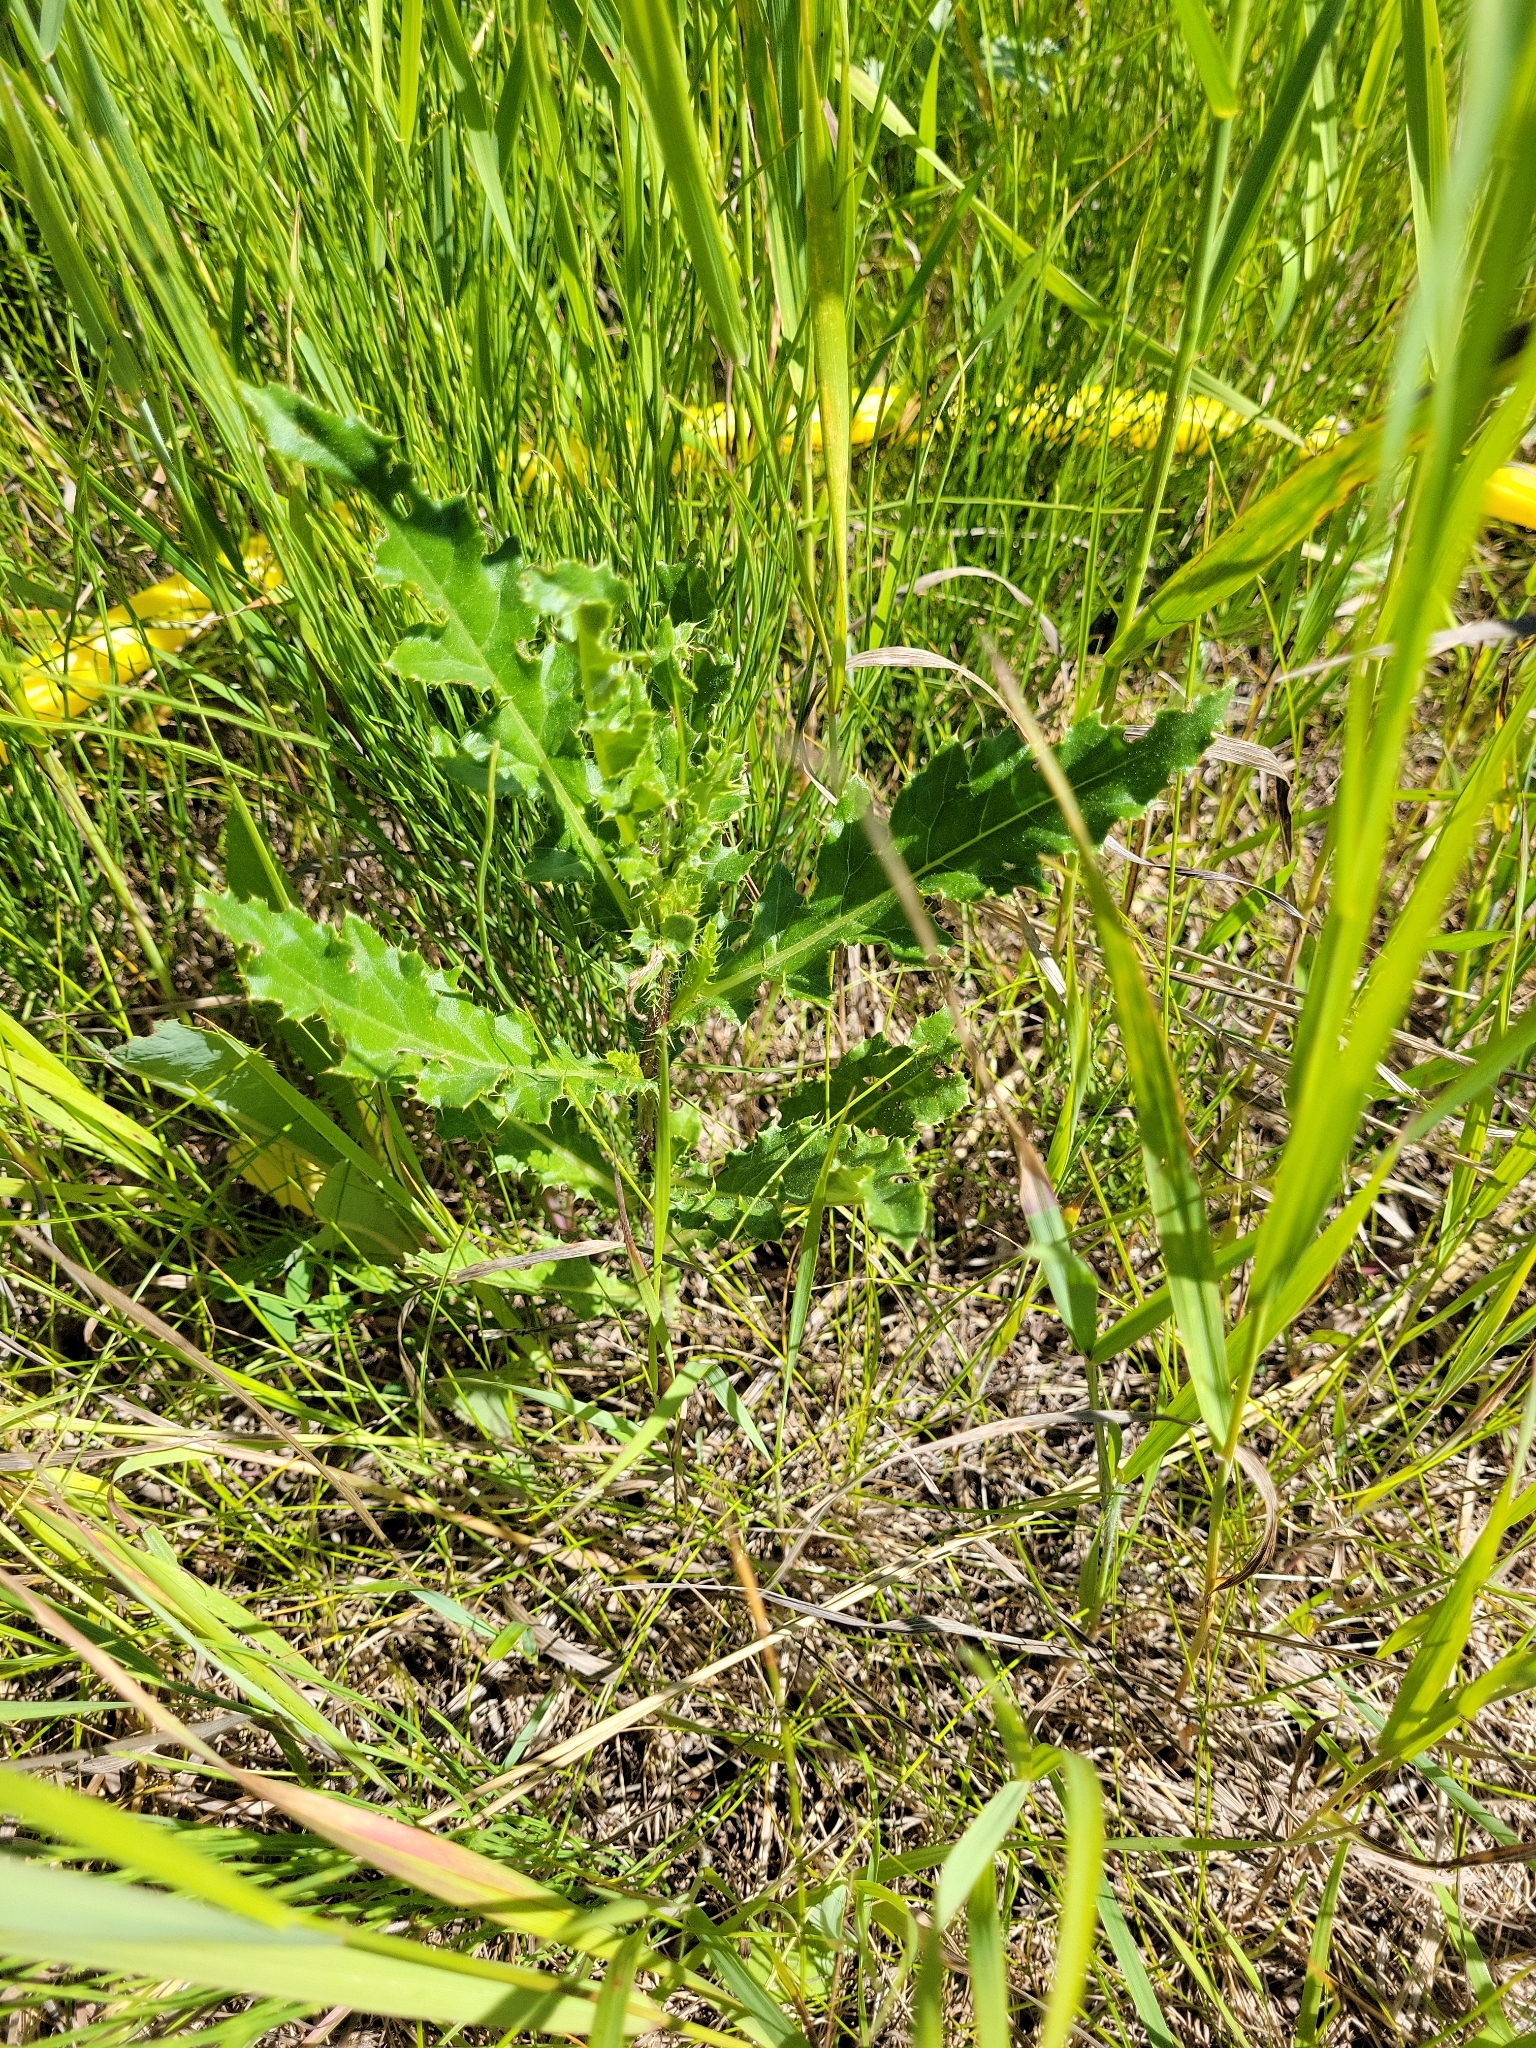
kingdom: Plantae
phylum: Tracheophyta
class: Magnoliopsida
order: Asterales
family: Asteraceae
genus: Cirsium
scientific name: Cirsium arvense
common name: Creeping thistle
